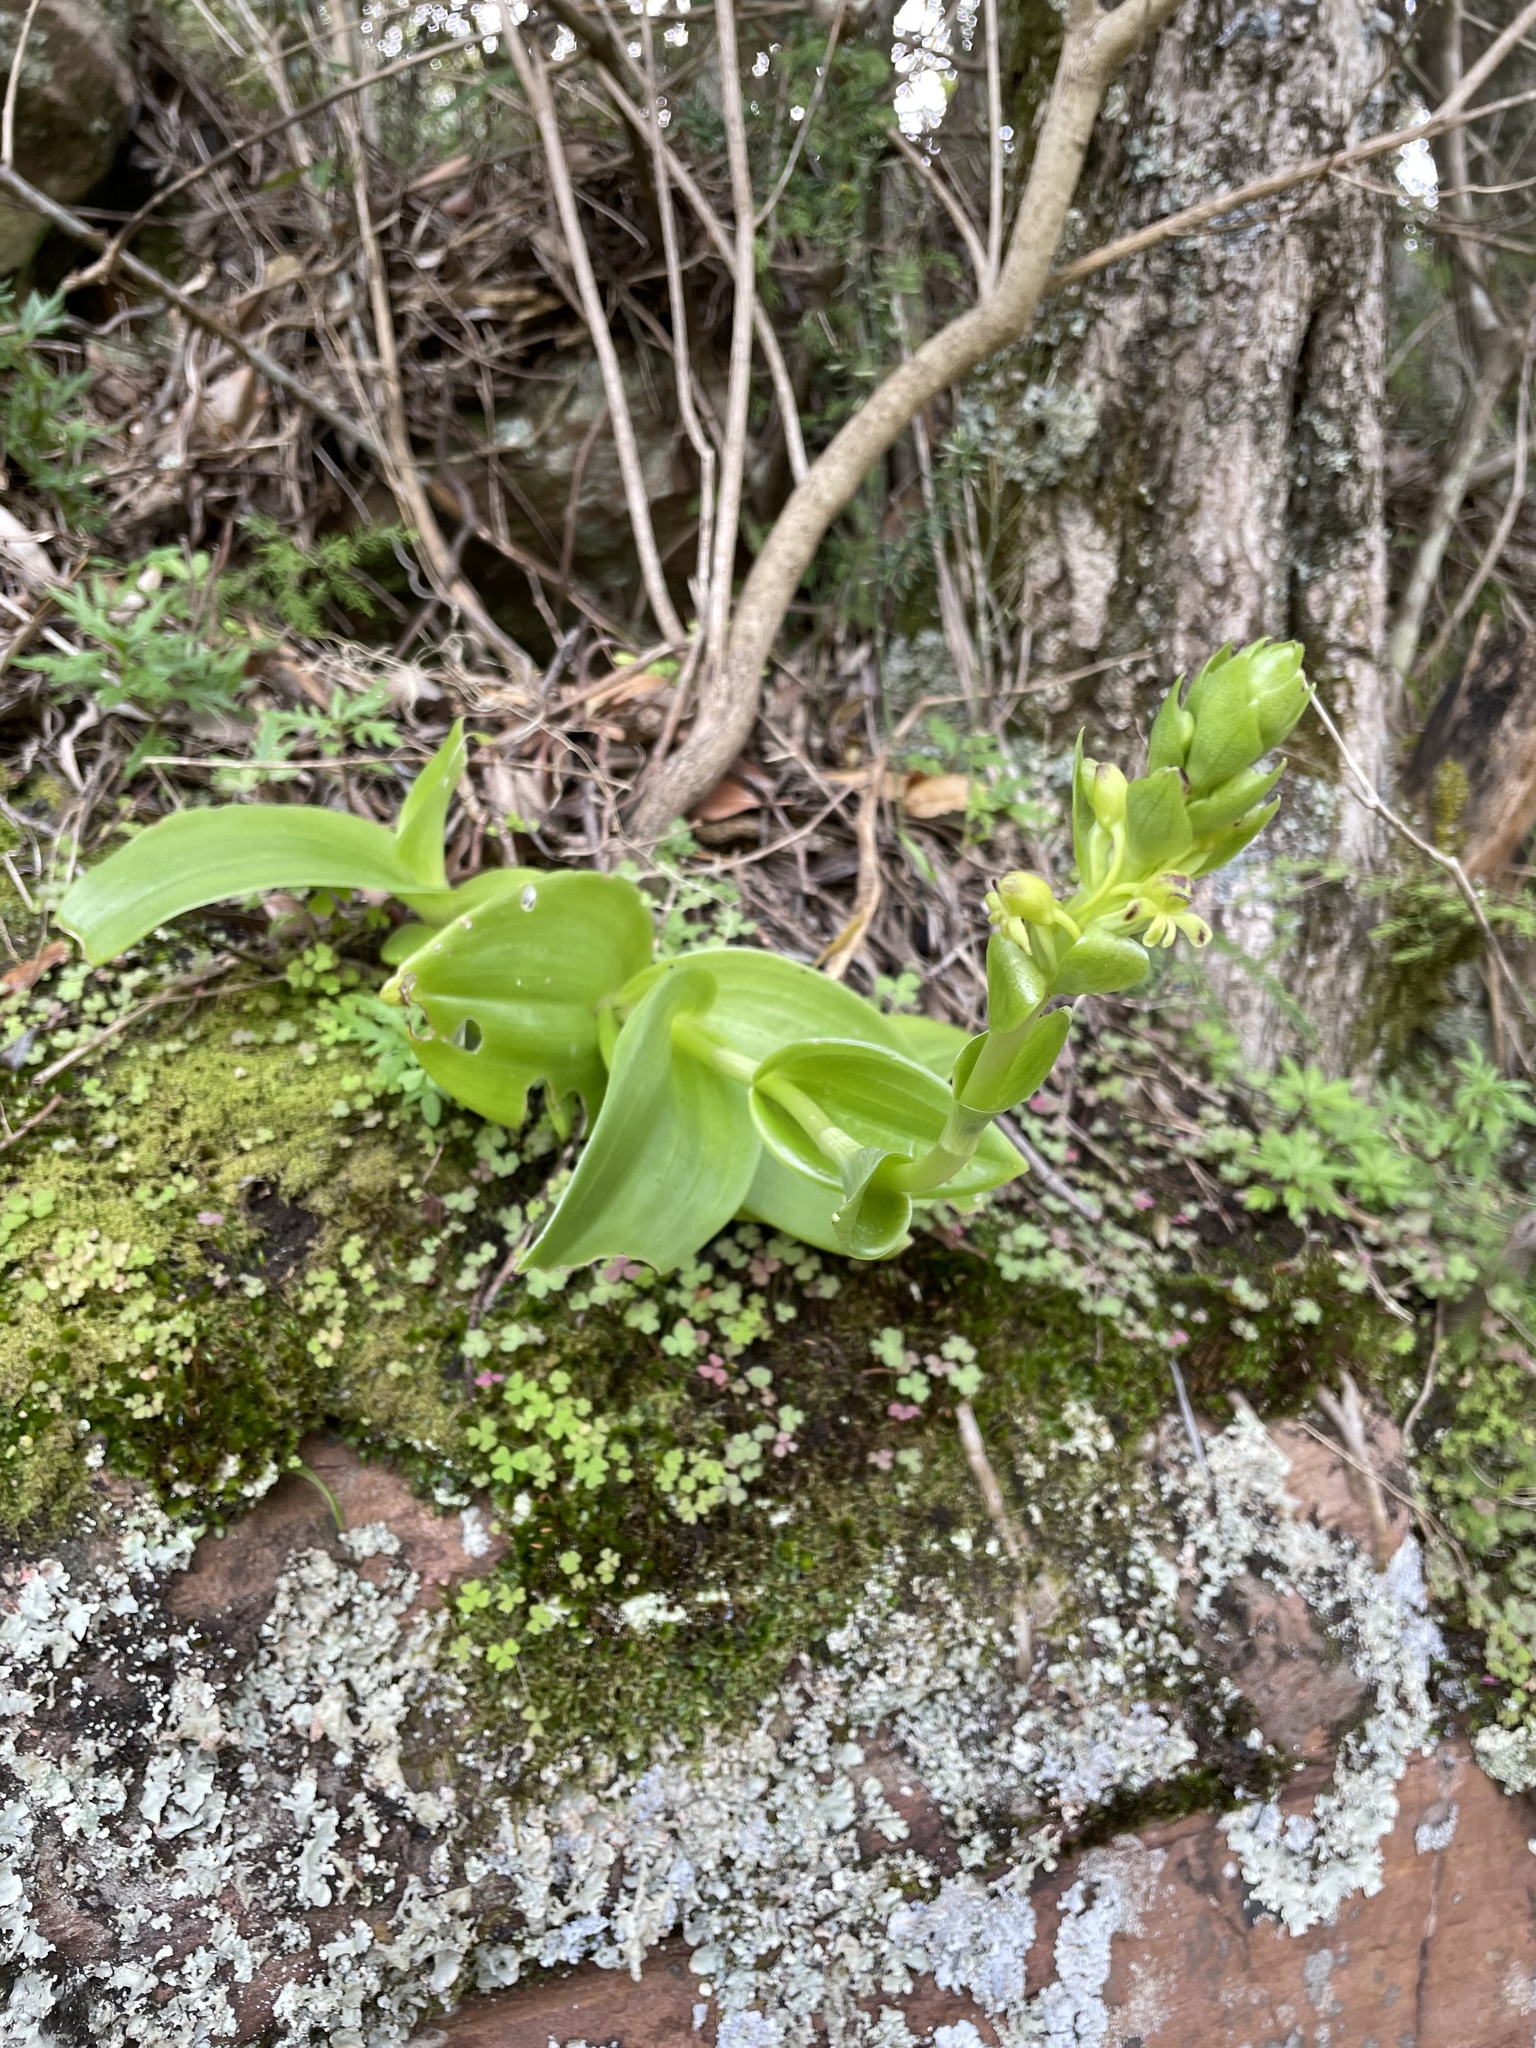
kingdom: Plantae
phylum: Tracheophyta
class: Liliopsida
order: Asparagales
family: Orchidaceae
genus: Satyrium
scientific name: Satyrium odorum
